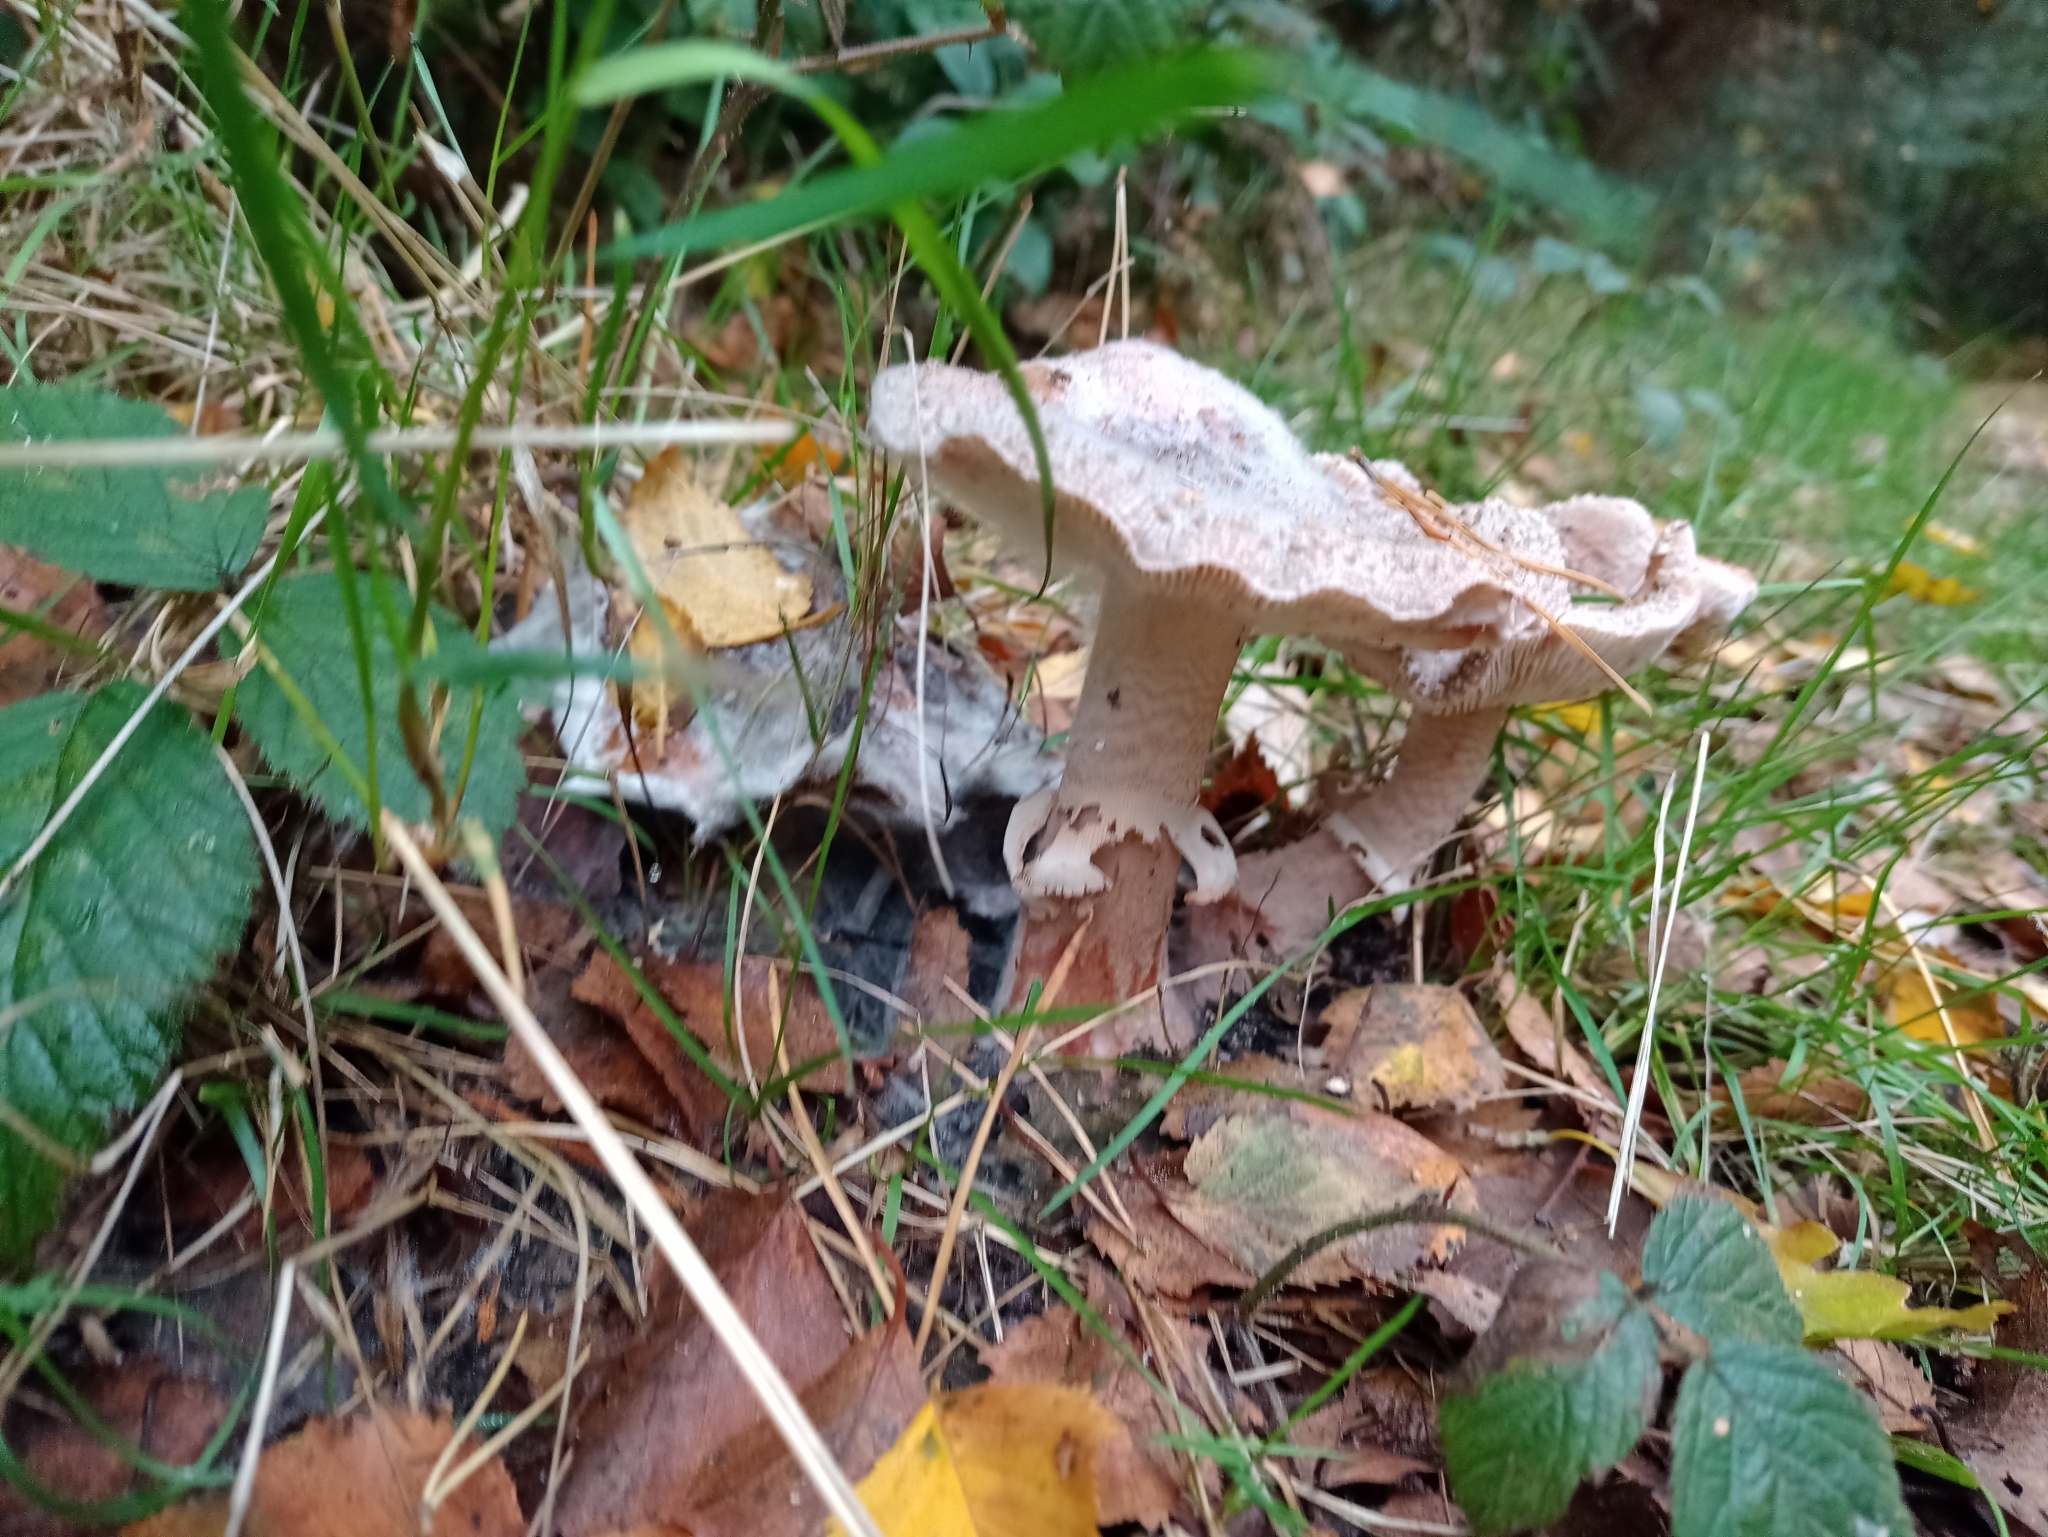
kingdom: Fungi
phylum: Basidiomycota
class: Agaricomycetes
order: Agaricales
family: Amanitaceae
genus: Amanita
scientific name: Amanita rubescens
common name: Blusher
